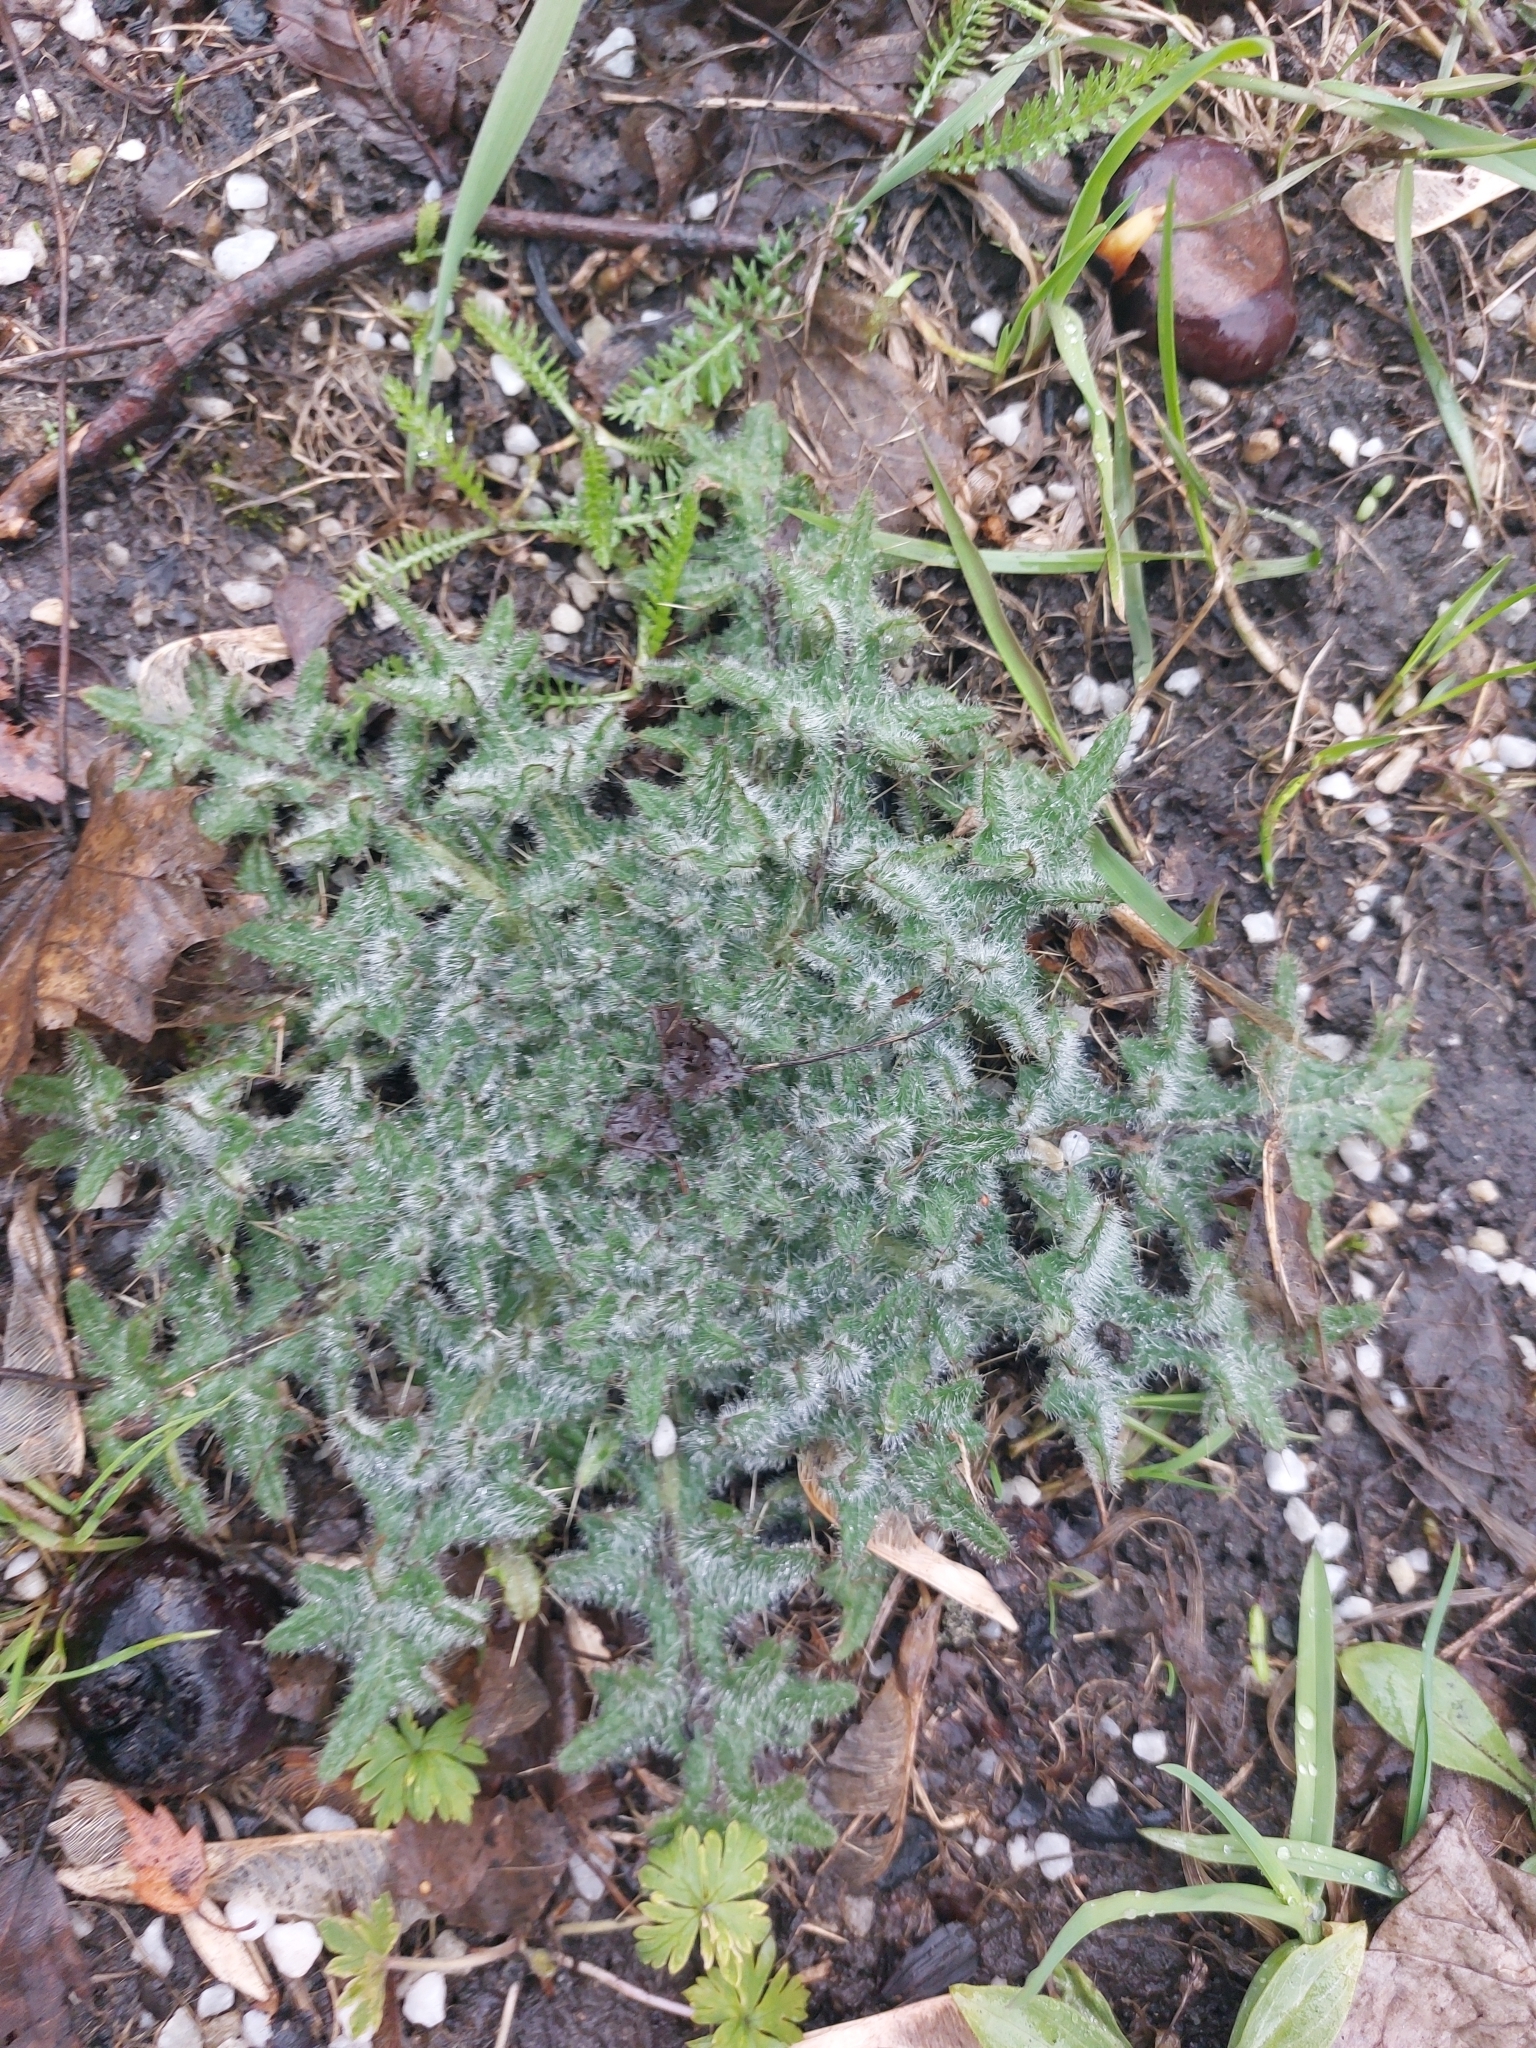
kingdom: Plantae
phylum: Tracheophyta
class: Magnoliopsida
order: Asterales
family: Asteraceae
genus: Cirsium
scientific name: Cirsium vulgare
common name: Bull thistle
